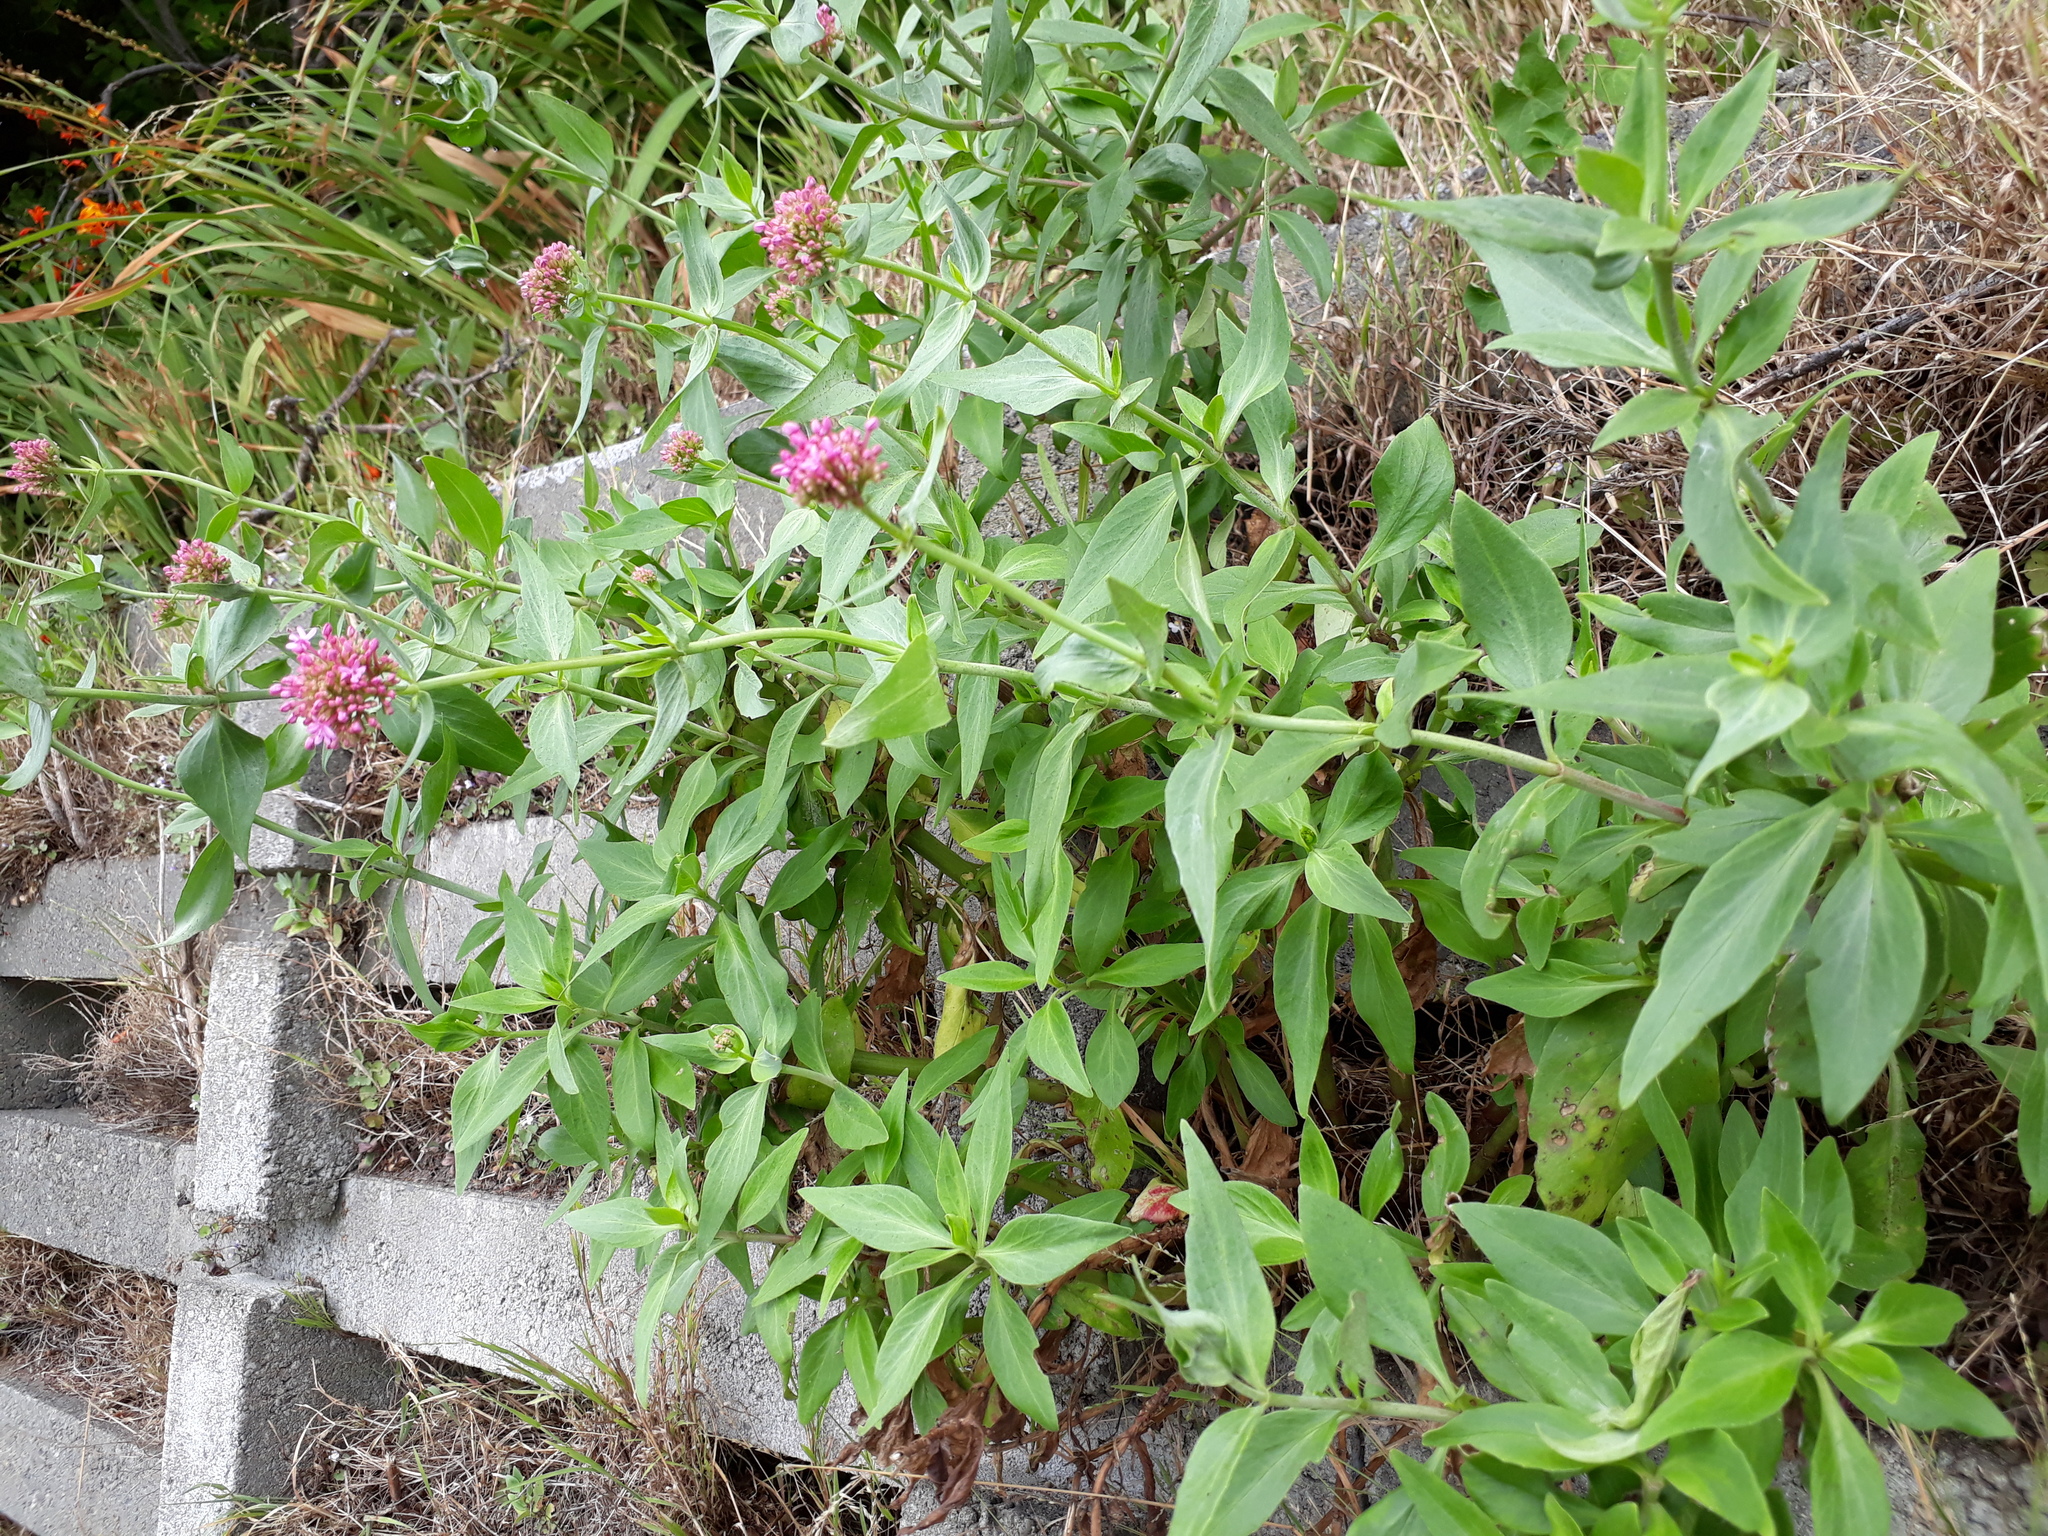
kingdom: Plantae
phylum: Tracheophyta
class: Magnoliopsida
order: Dipsacales
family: Caprifoliaceae
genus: Centranthus
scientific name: Centranthus ruber
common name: Red valerian
